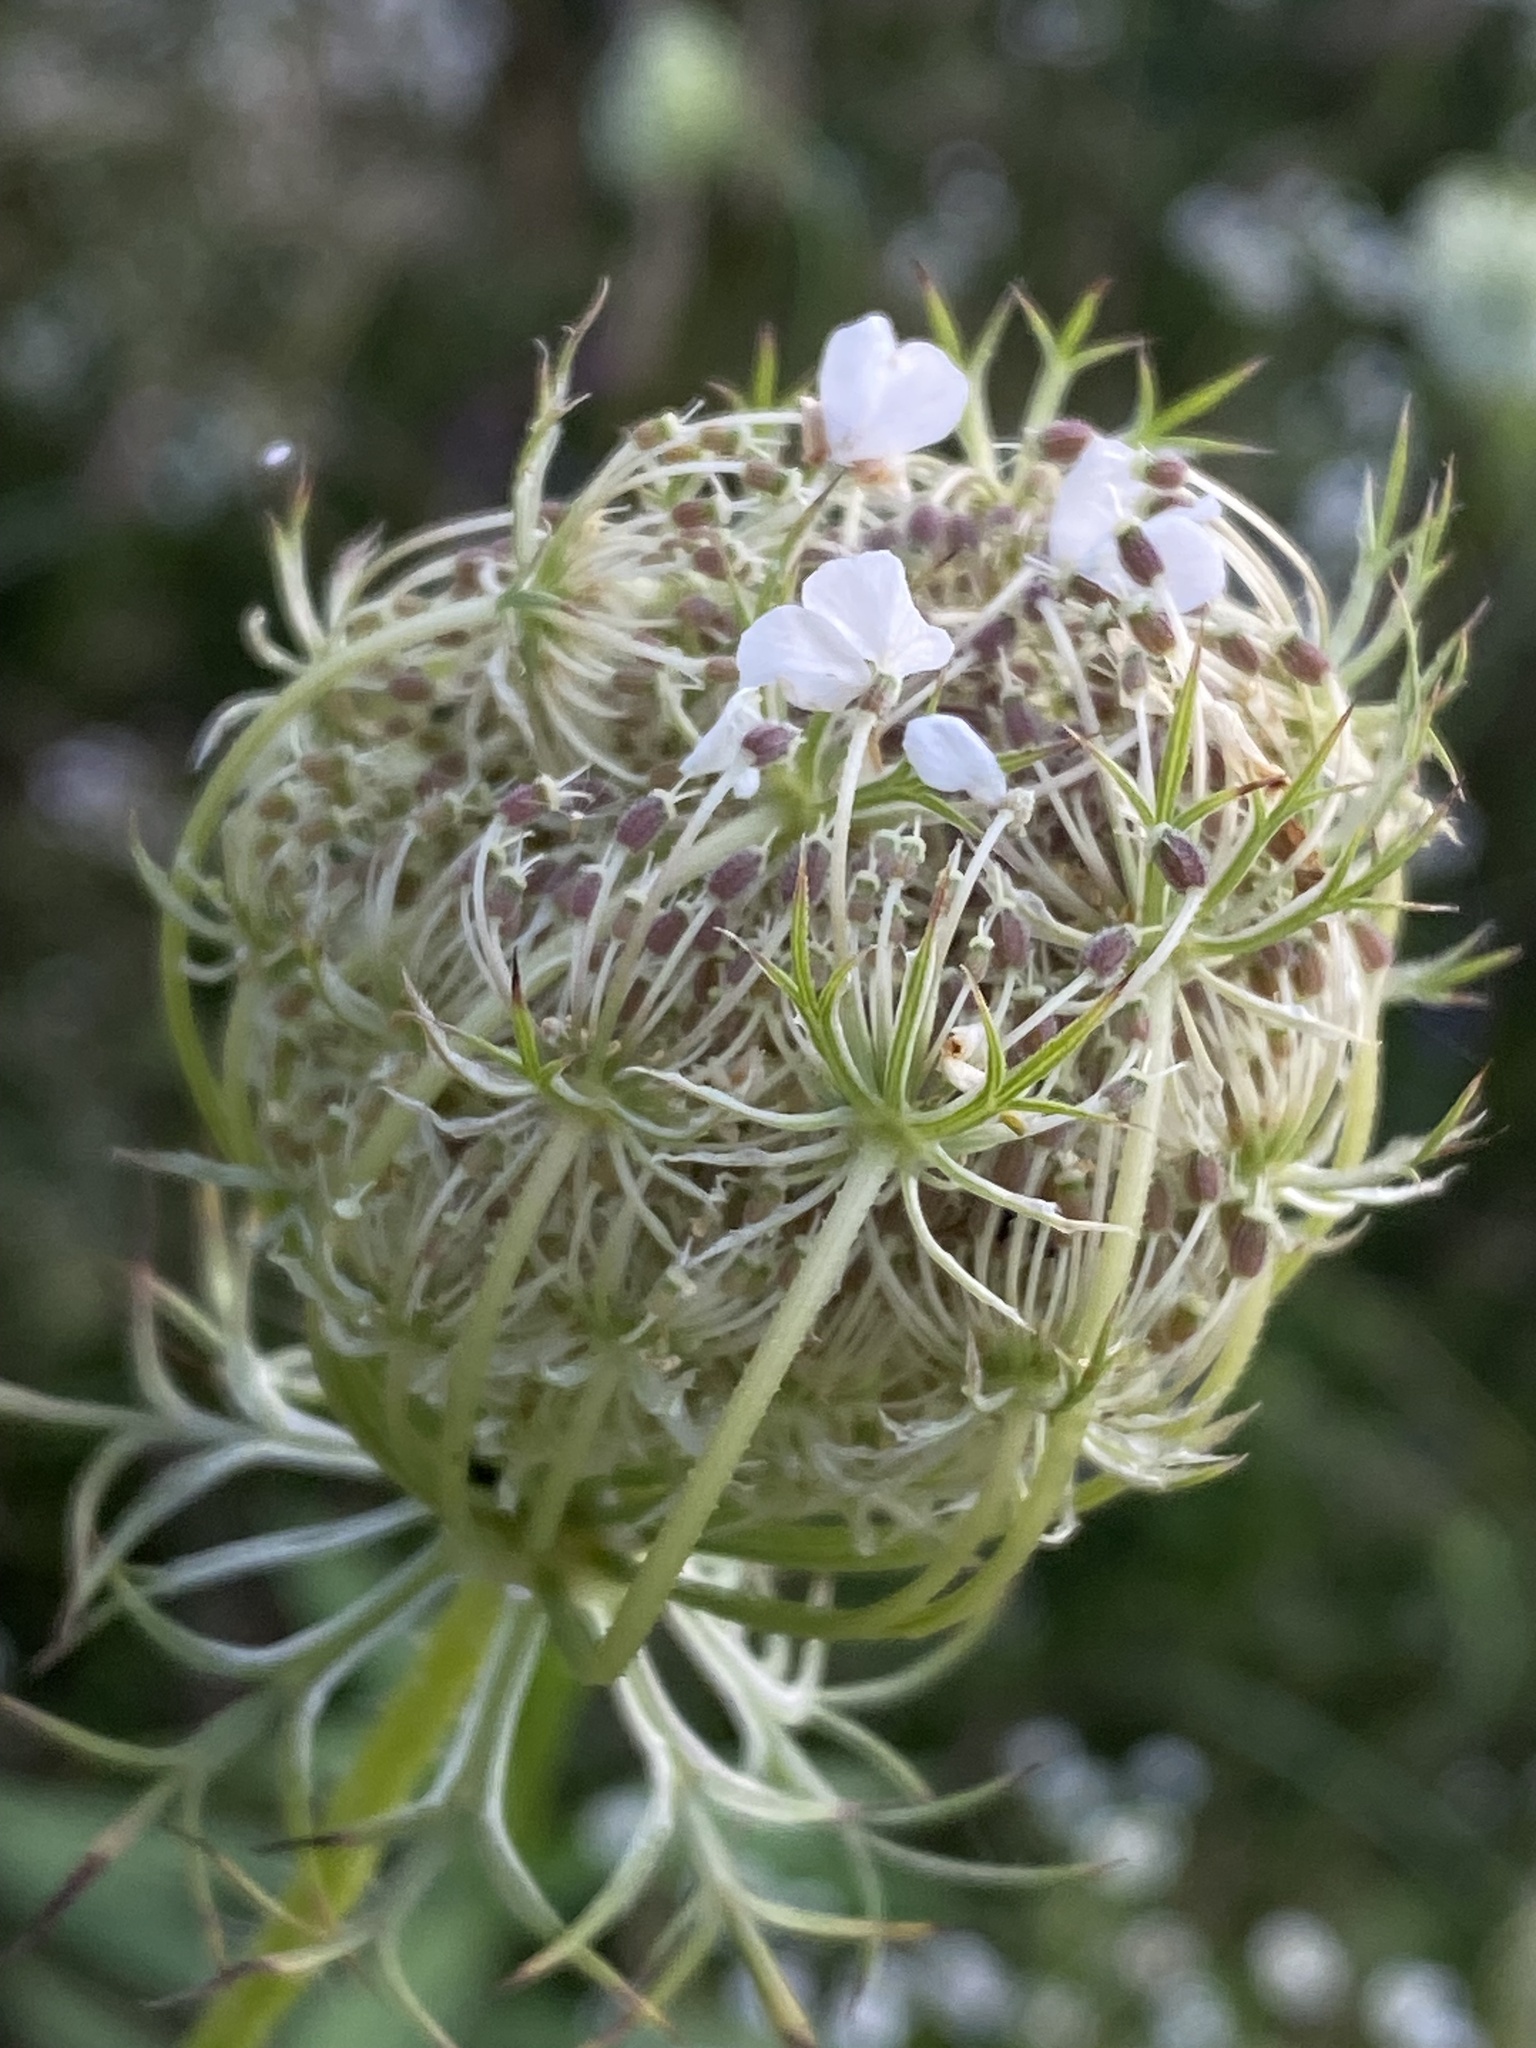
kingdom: Plantae
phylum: Tracheophyta
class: Magnoliopsida
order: Apiales
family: Apiaceae
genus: Daucus
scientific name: Daucus carota
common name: Wild carrot
